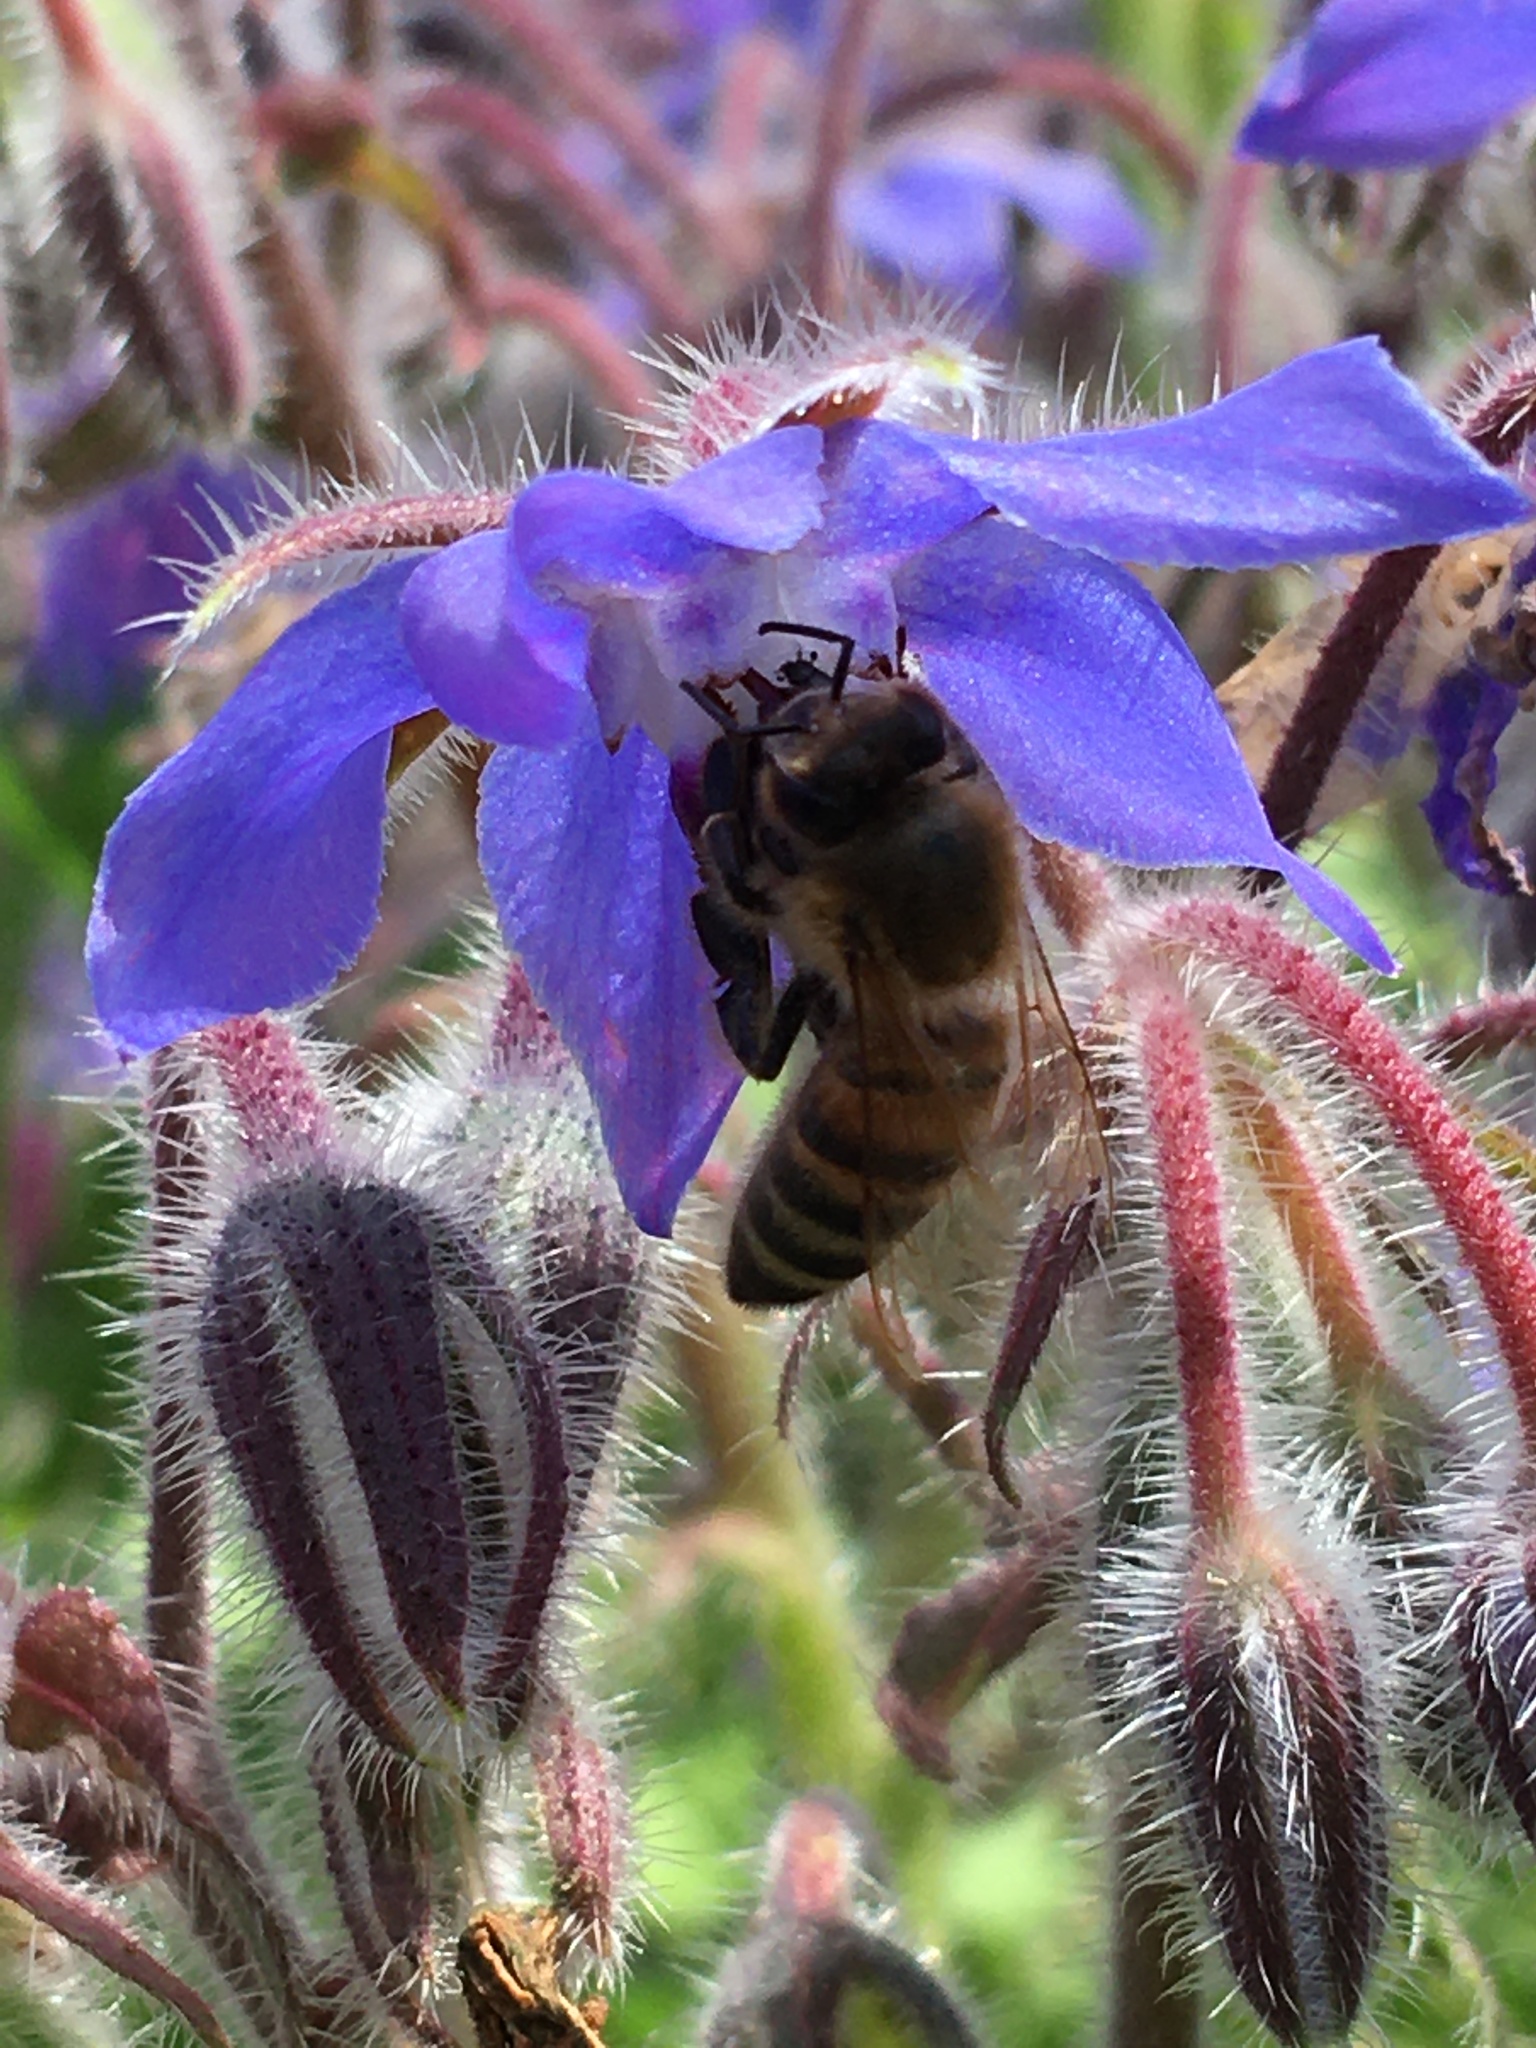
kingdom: Animalia
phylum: Arthropoda
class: Insecta
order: Hymenoptera
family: Apidae
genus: Apis
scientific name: Apis mellifera
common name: Honey bee
